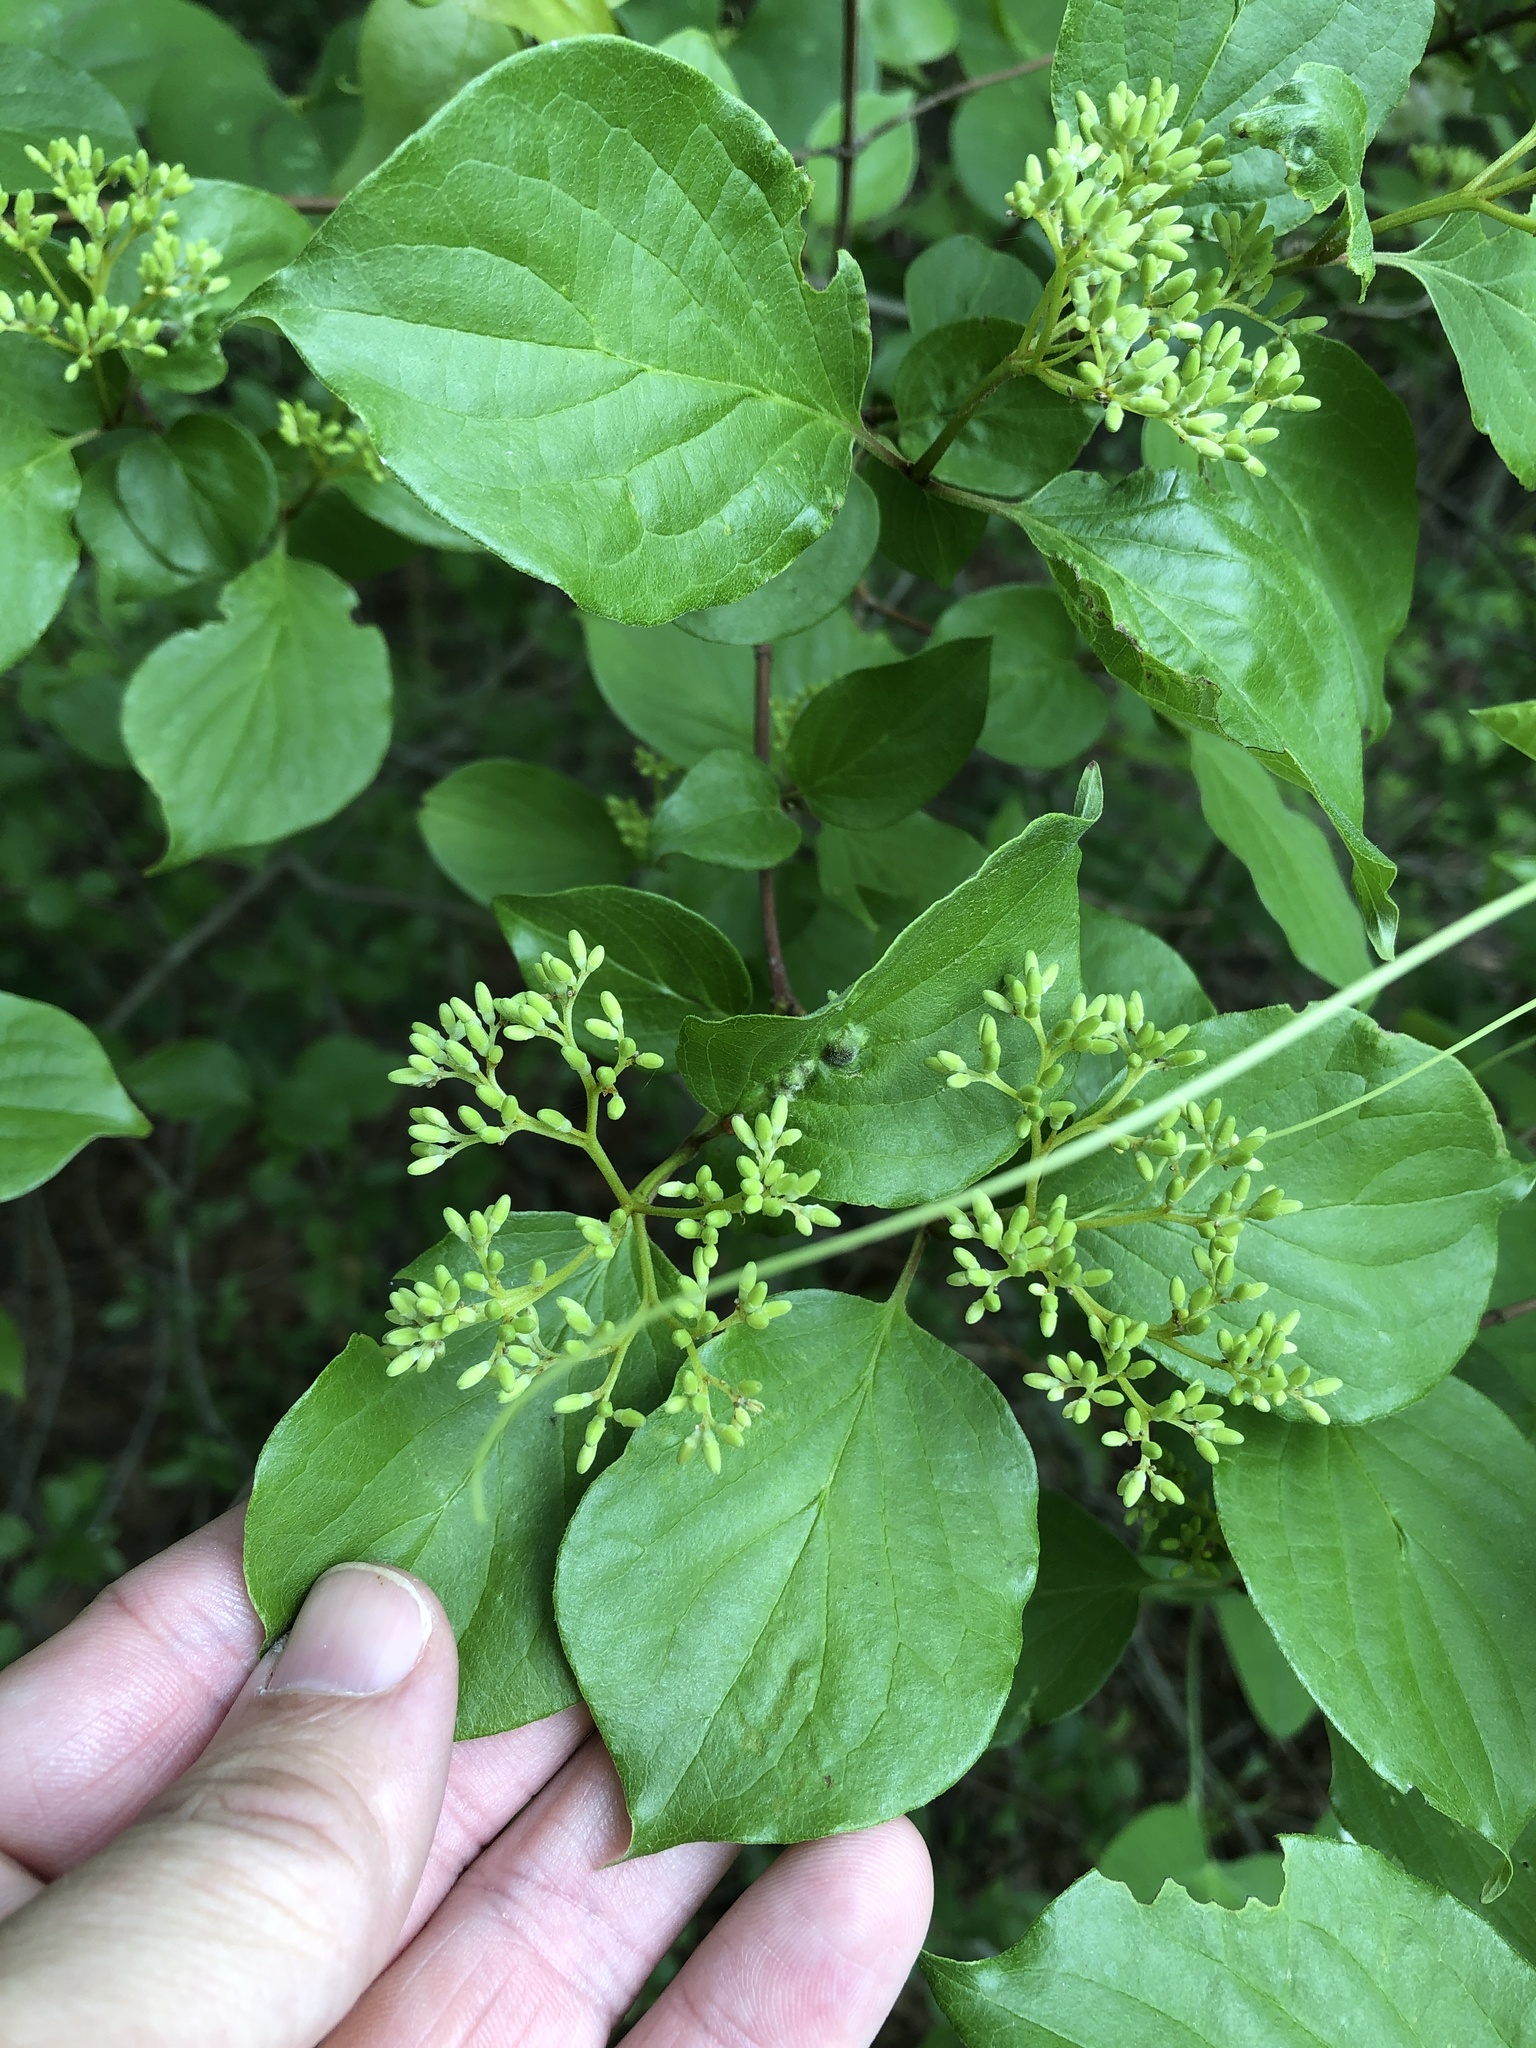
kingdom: Plantae
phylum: Tracheophyta
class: Magnoliopsida
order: Cornales
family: Cornaceae
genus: Cornus
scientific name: Cornus drummondii
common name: Rough-leaf dogwood
